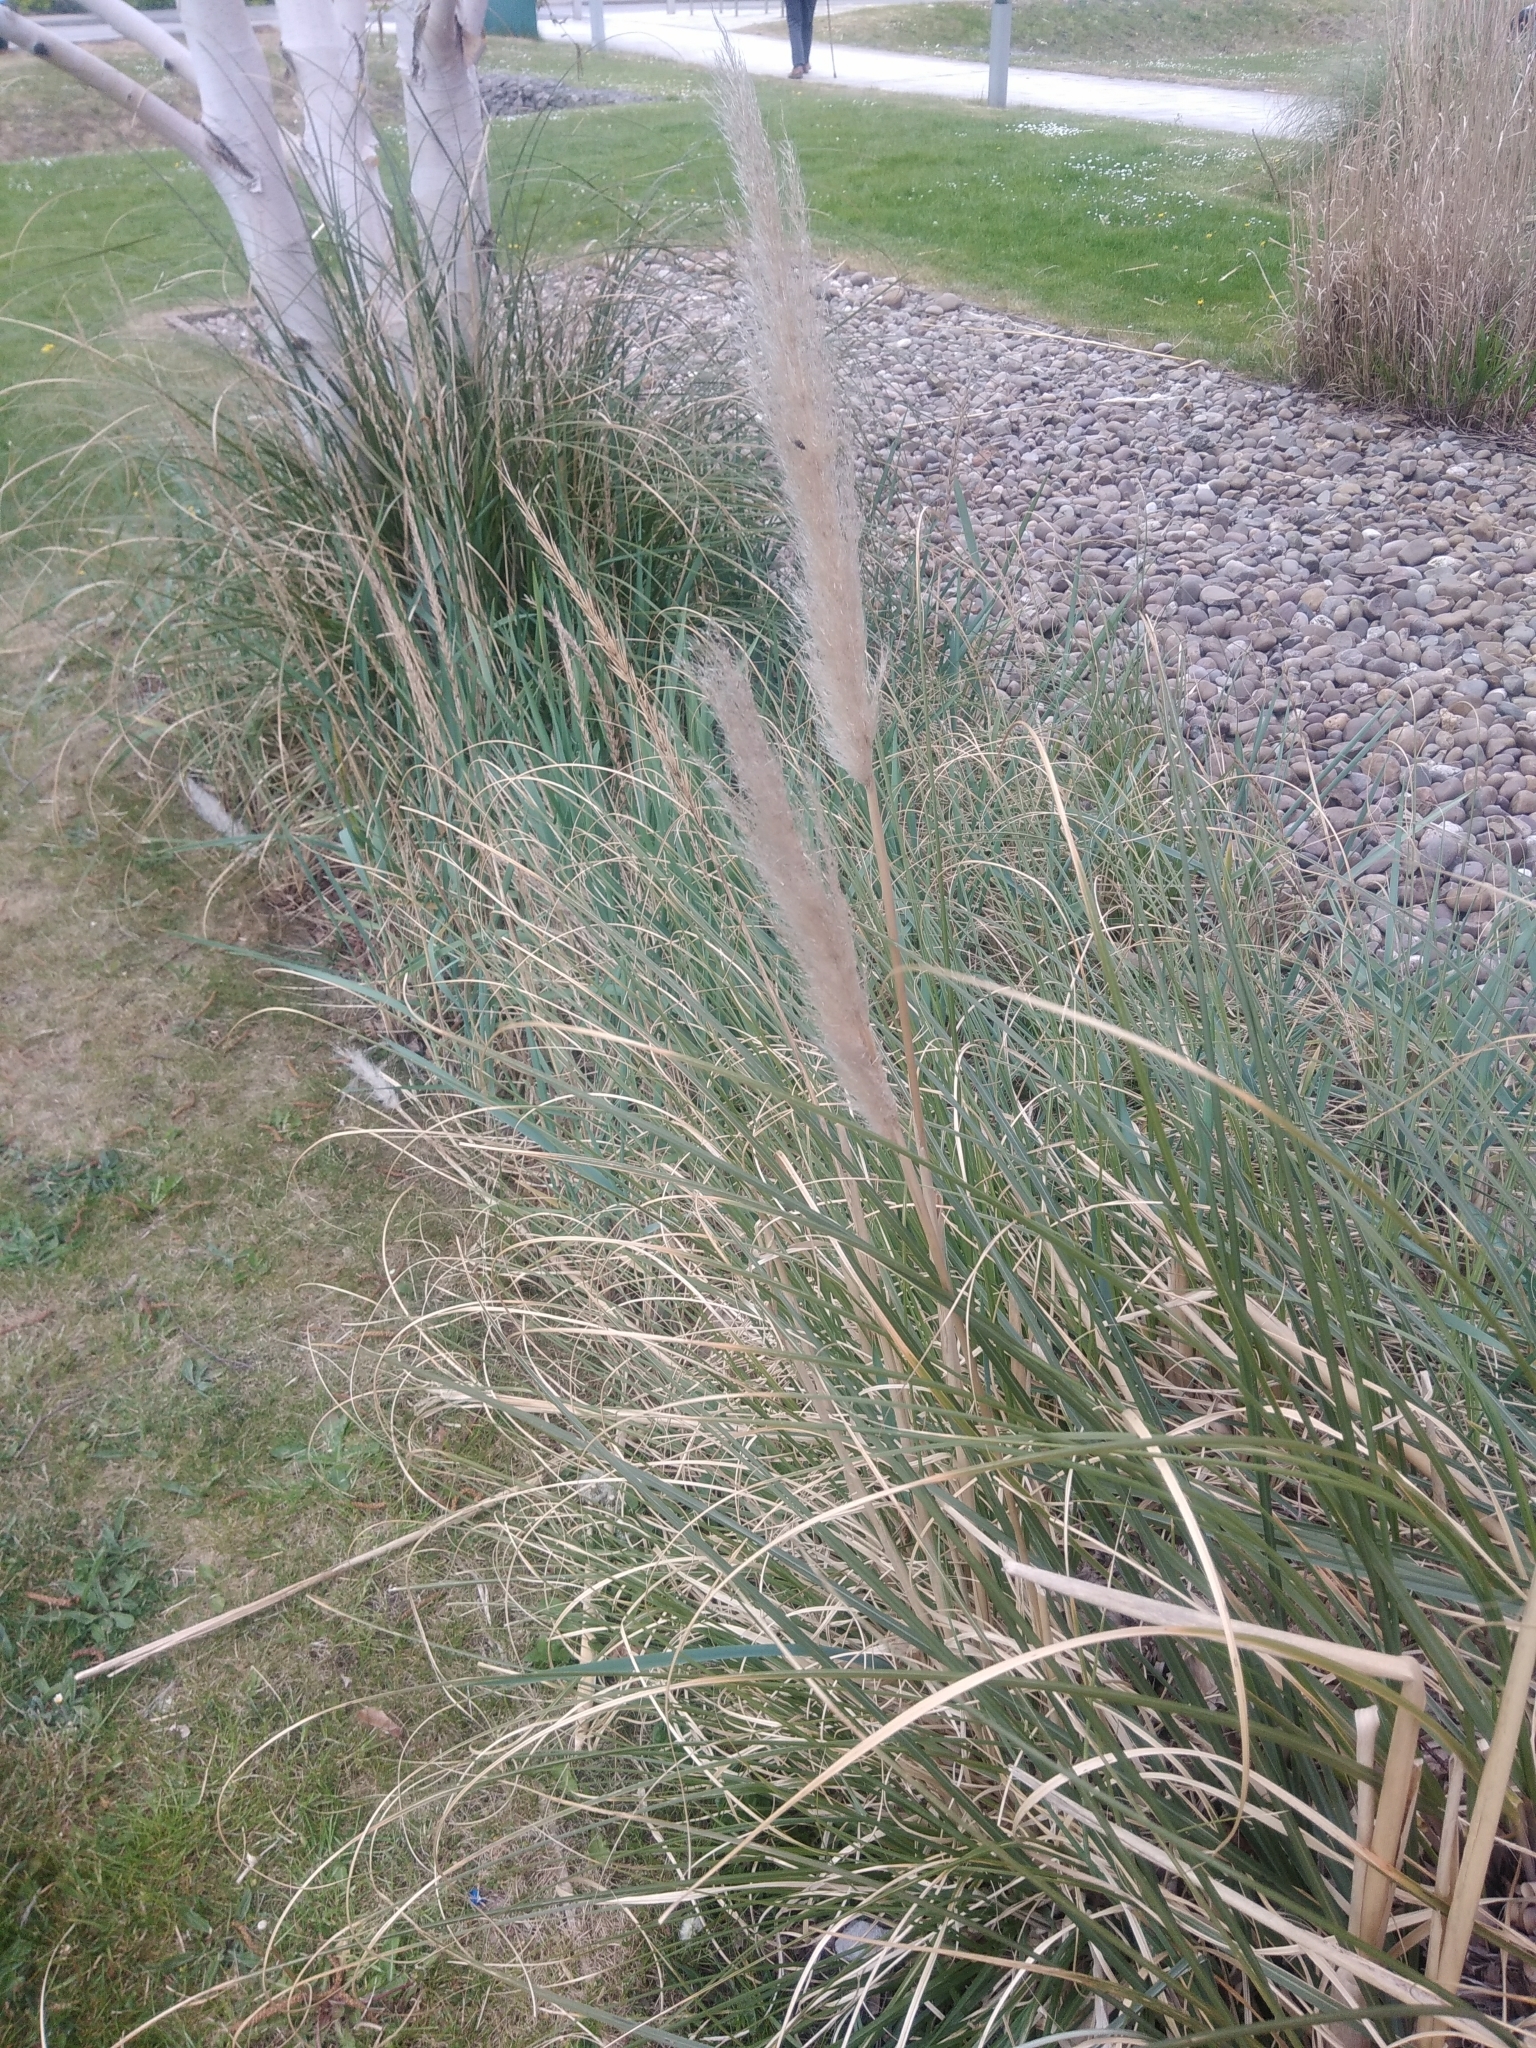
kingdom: Plantae
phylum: Tracheophyta
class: Liliopsida
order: Poales
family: Poaceae
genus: Cortaderia
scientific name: Cortaderia selloana
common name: Uruguayan pampas grass
